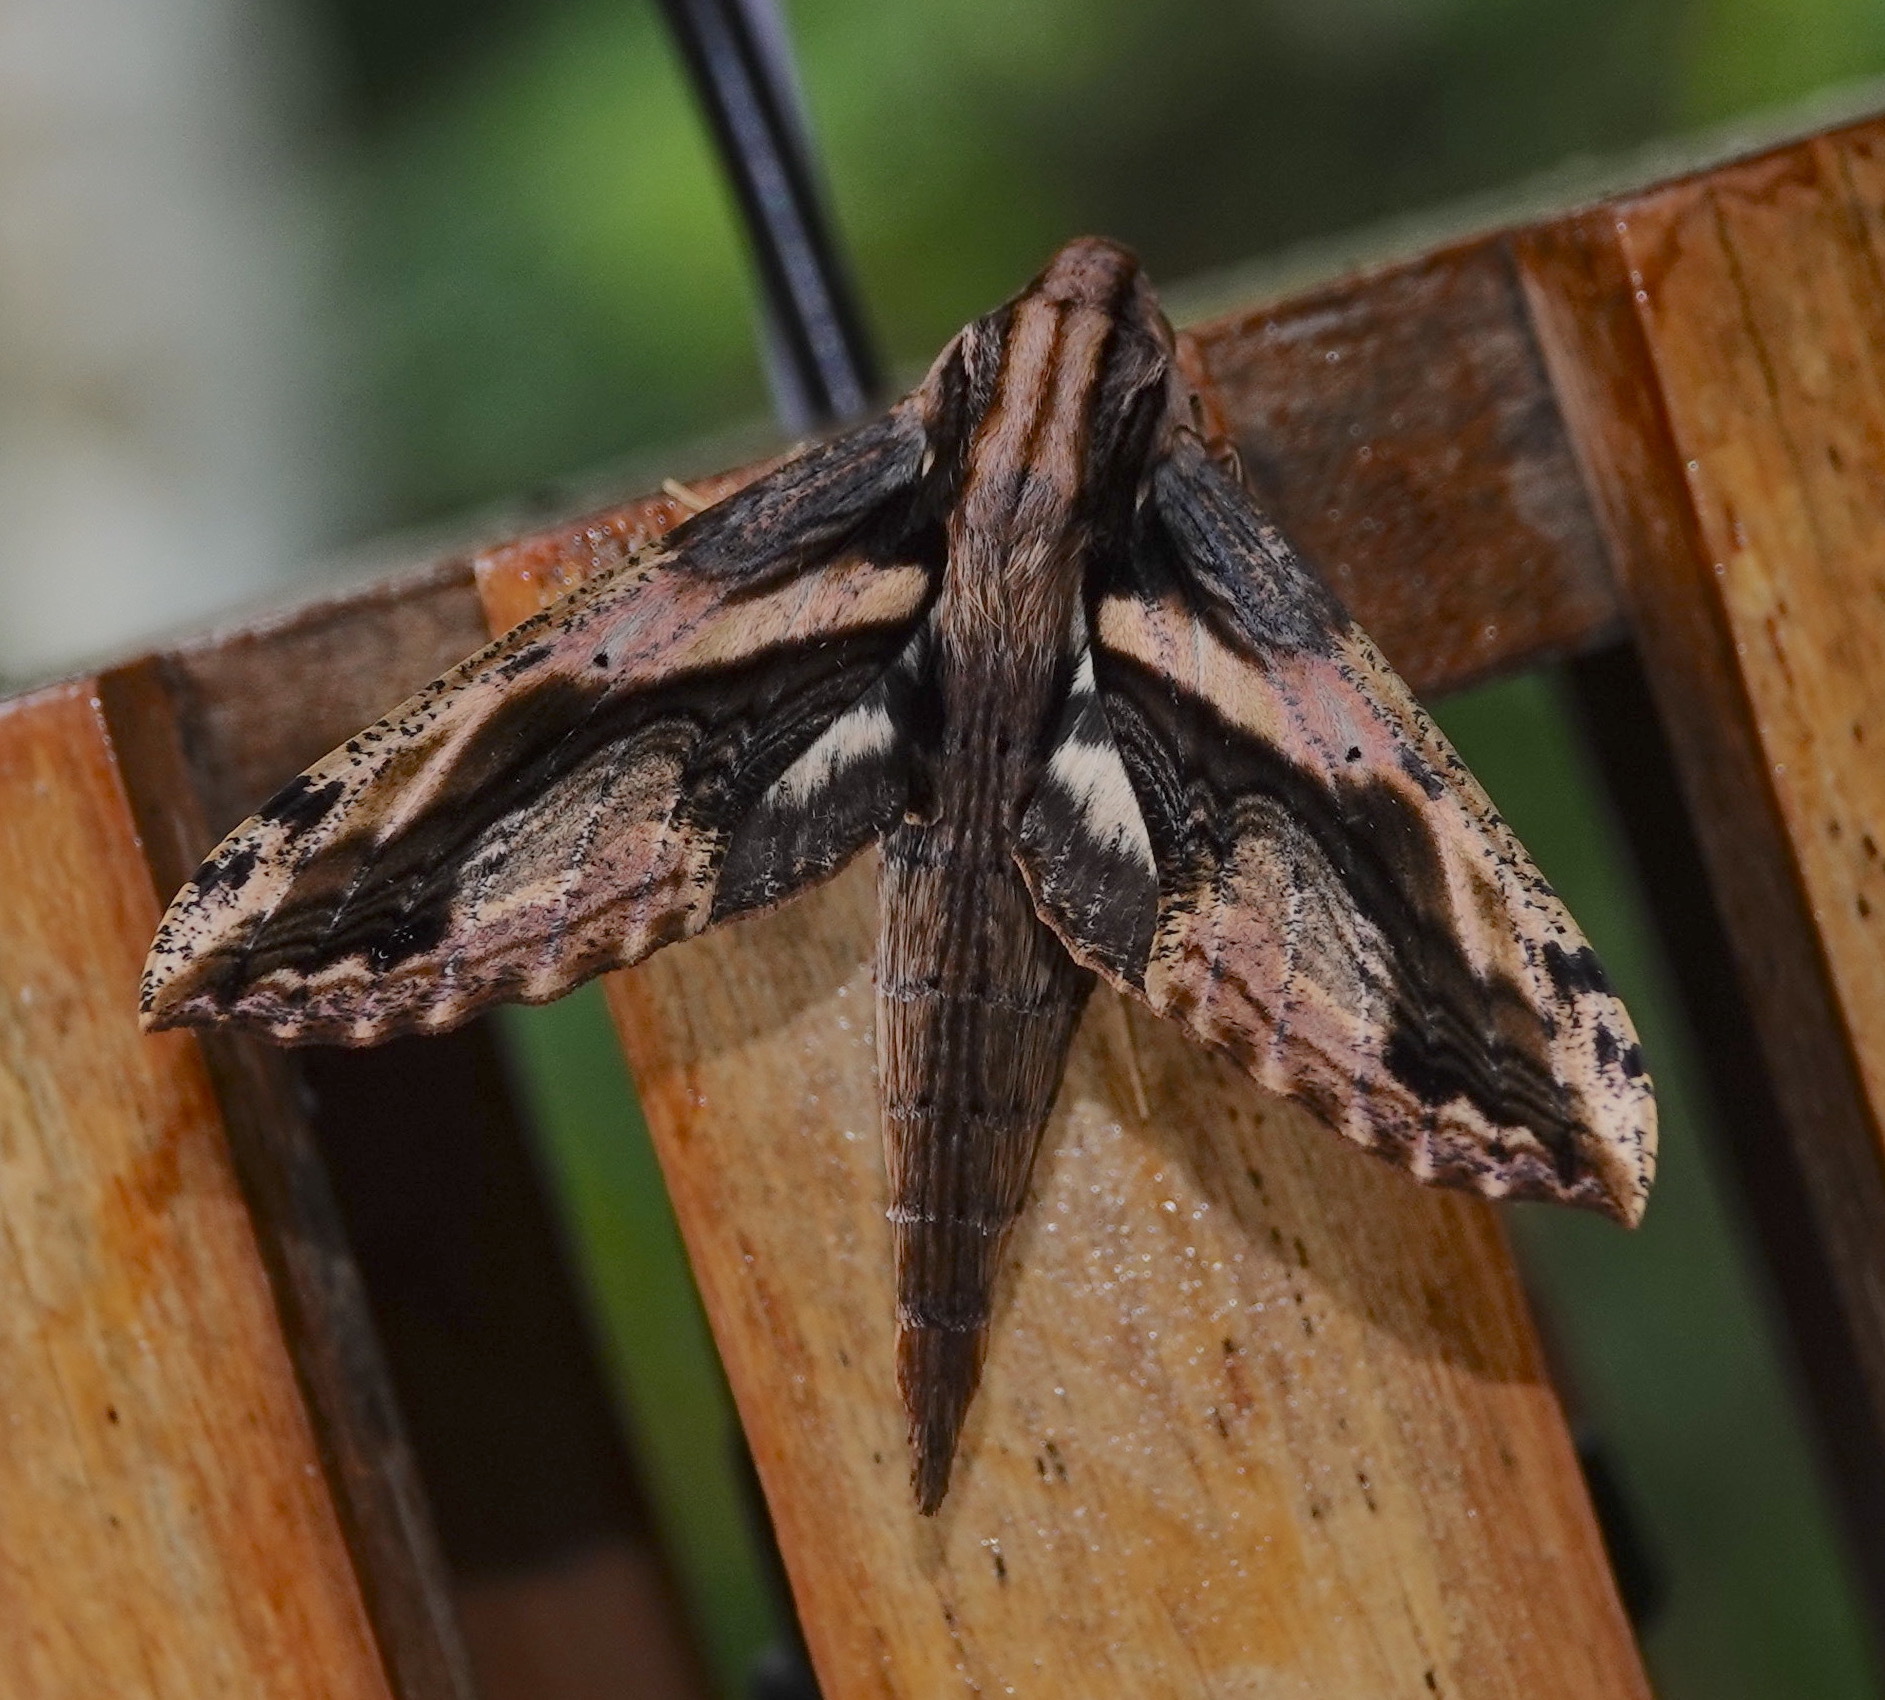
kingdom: Animalia
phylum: Arthropoda
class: Insecta
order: Lepidoptera
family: Sphingidae
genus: Xylophanes
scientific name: Xylophanes ceratomioides
